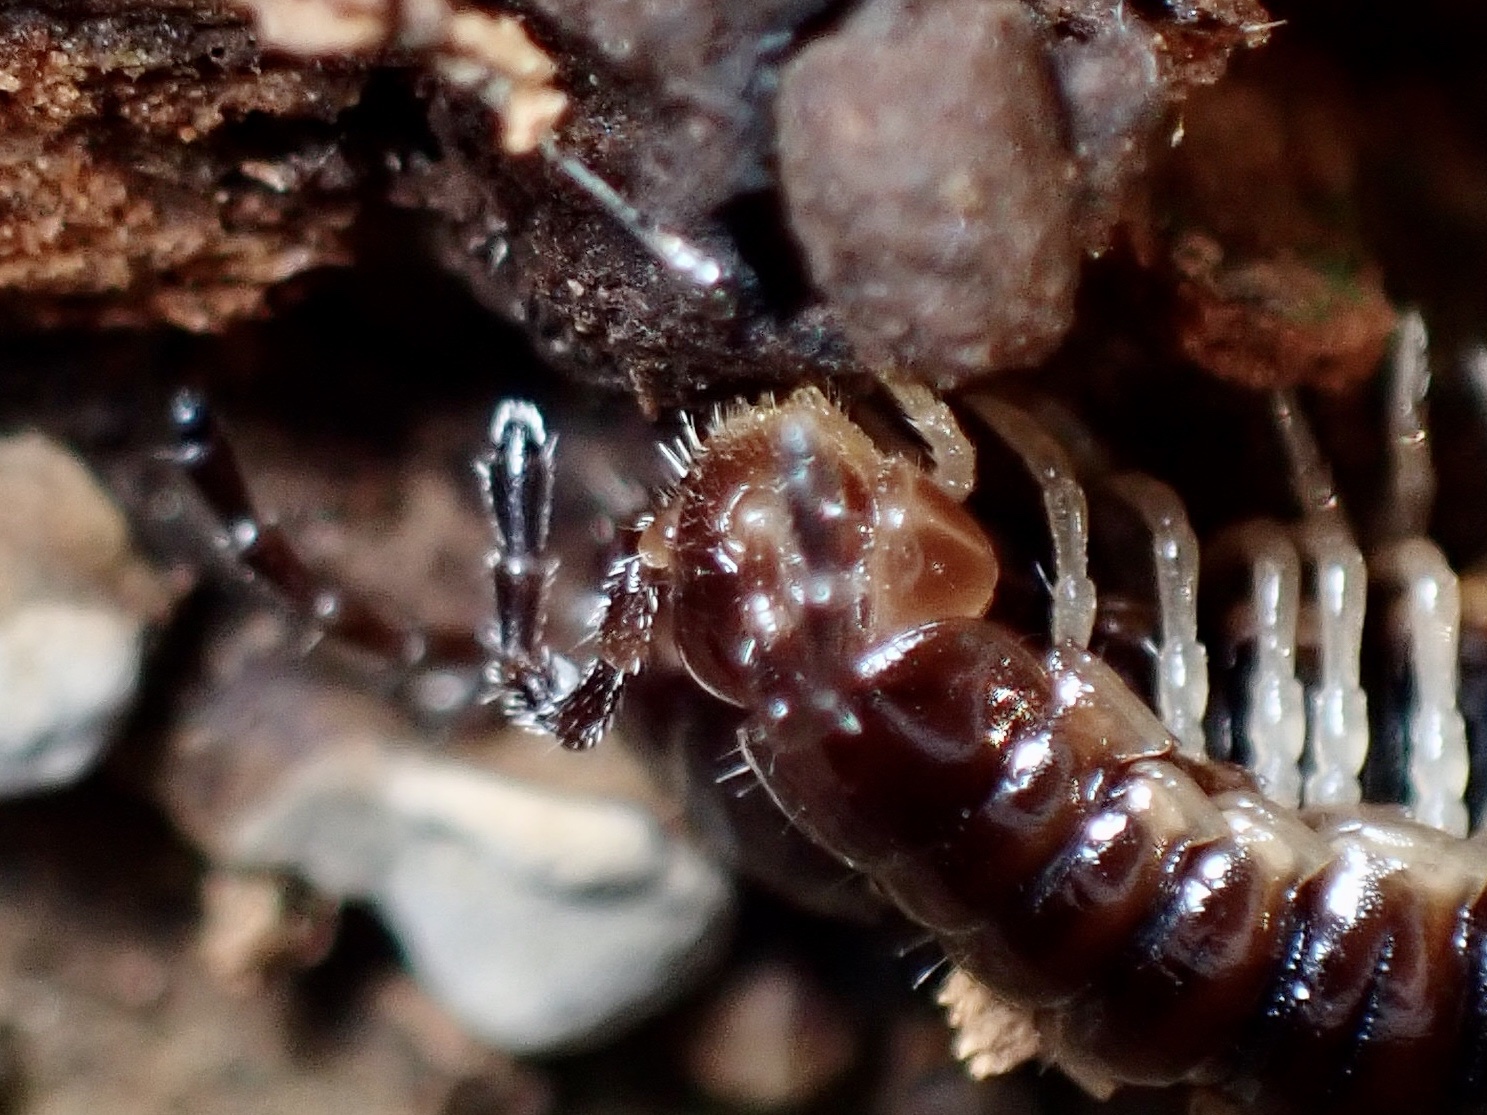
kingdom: Animalia
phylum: Arthropoda
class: Diplopoda
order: Polydesmida
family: Paradoxosomatidae
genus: Oxidus
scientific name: Oxidus gracilis
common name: Greenhouse millipede
